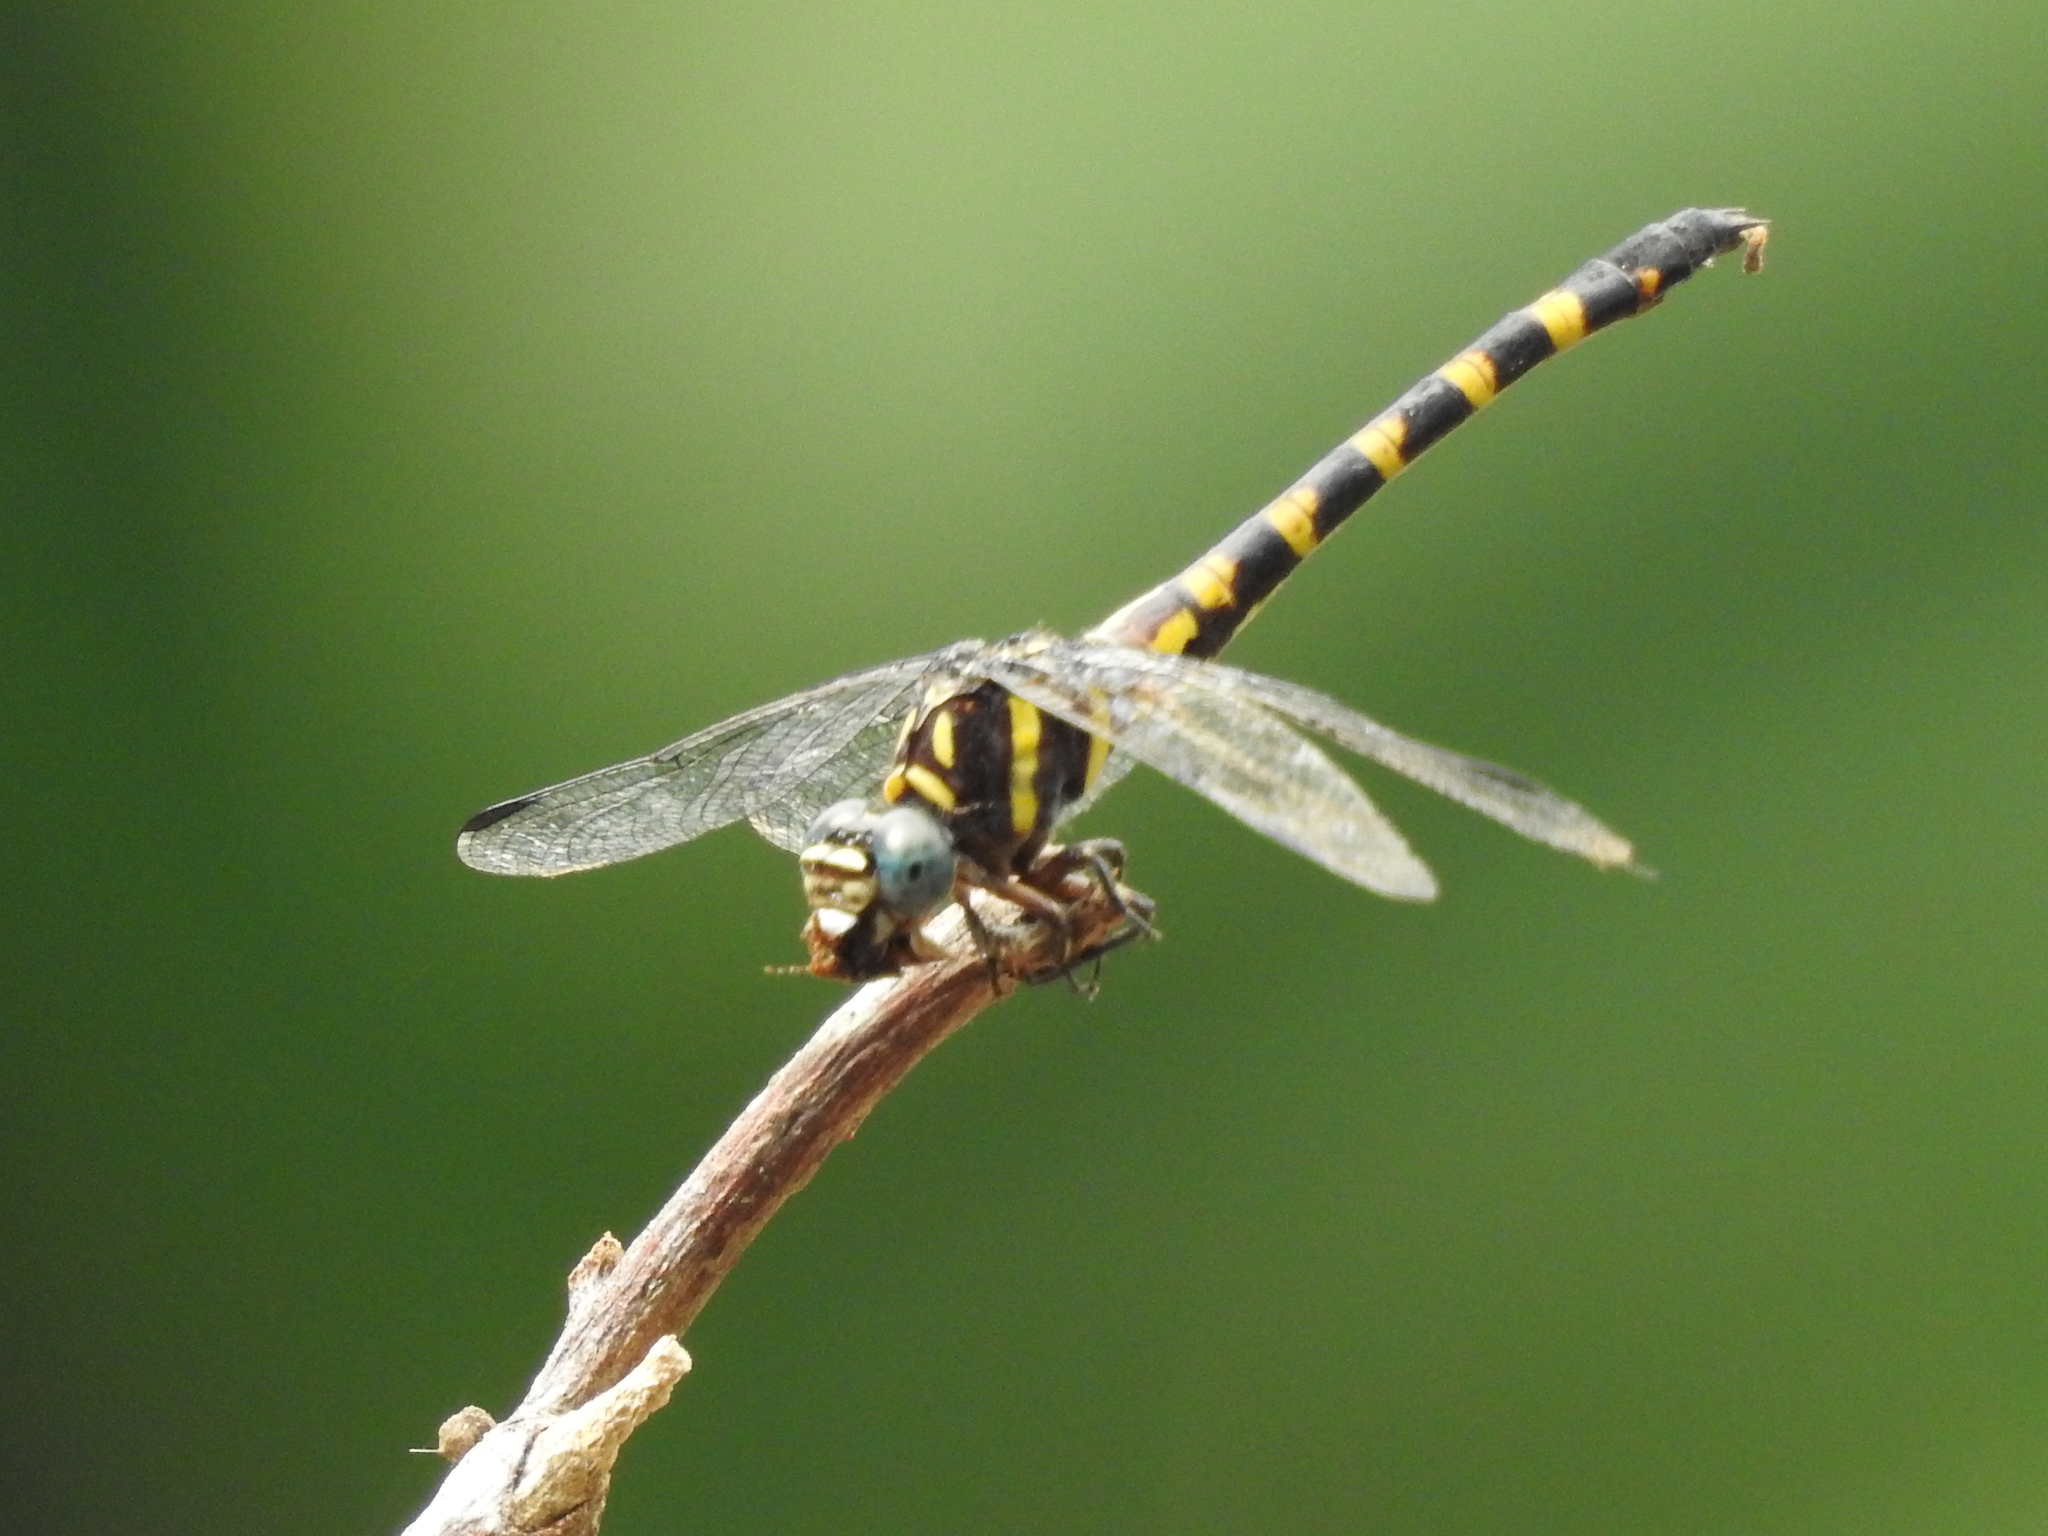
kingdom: Animalia
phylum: Arthropoda
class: Insecta
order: Odonata
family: Gomphidae
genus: Paragomphus
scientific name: Paragomphus capricornis
